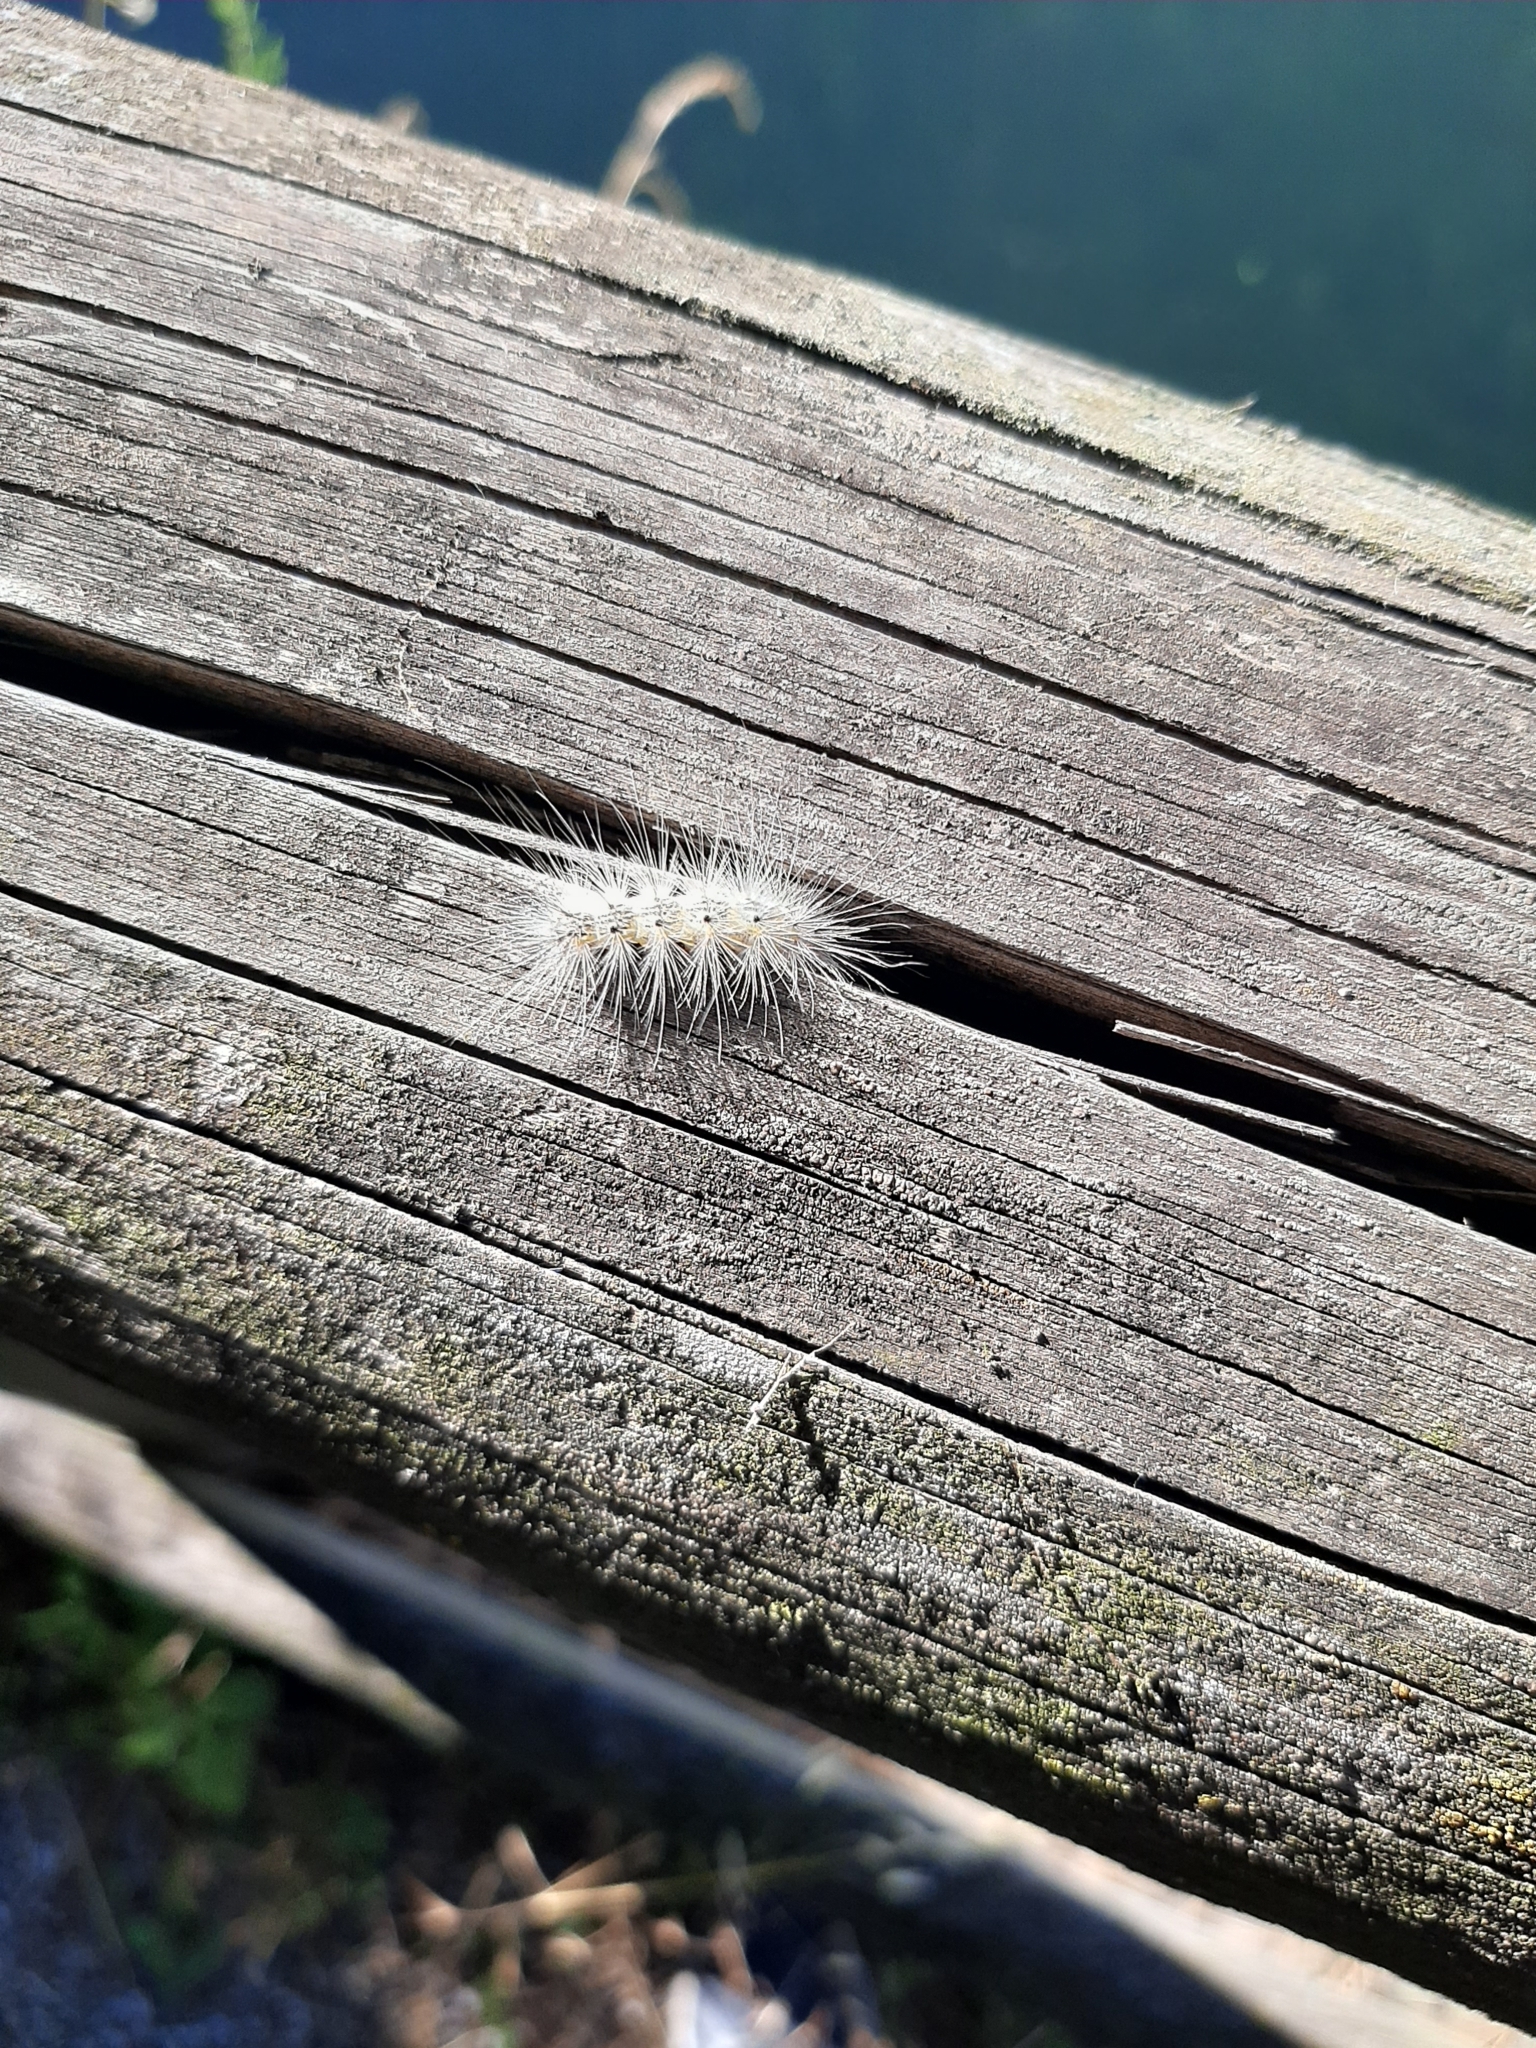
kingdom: Animalia
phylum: Arthropoda
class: Insecta
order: Lepidoptera
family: Erebidae
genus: Hyphantria
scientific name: Hyphantria cunea
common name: American white moth
